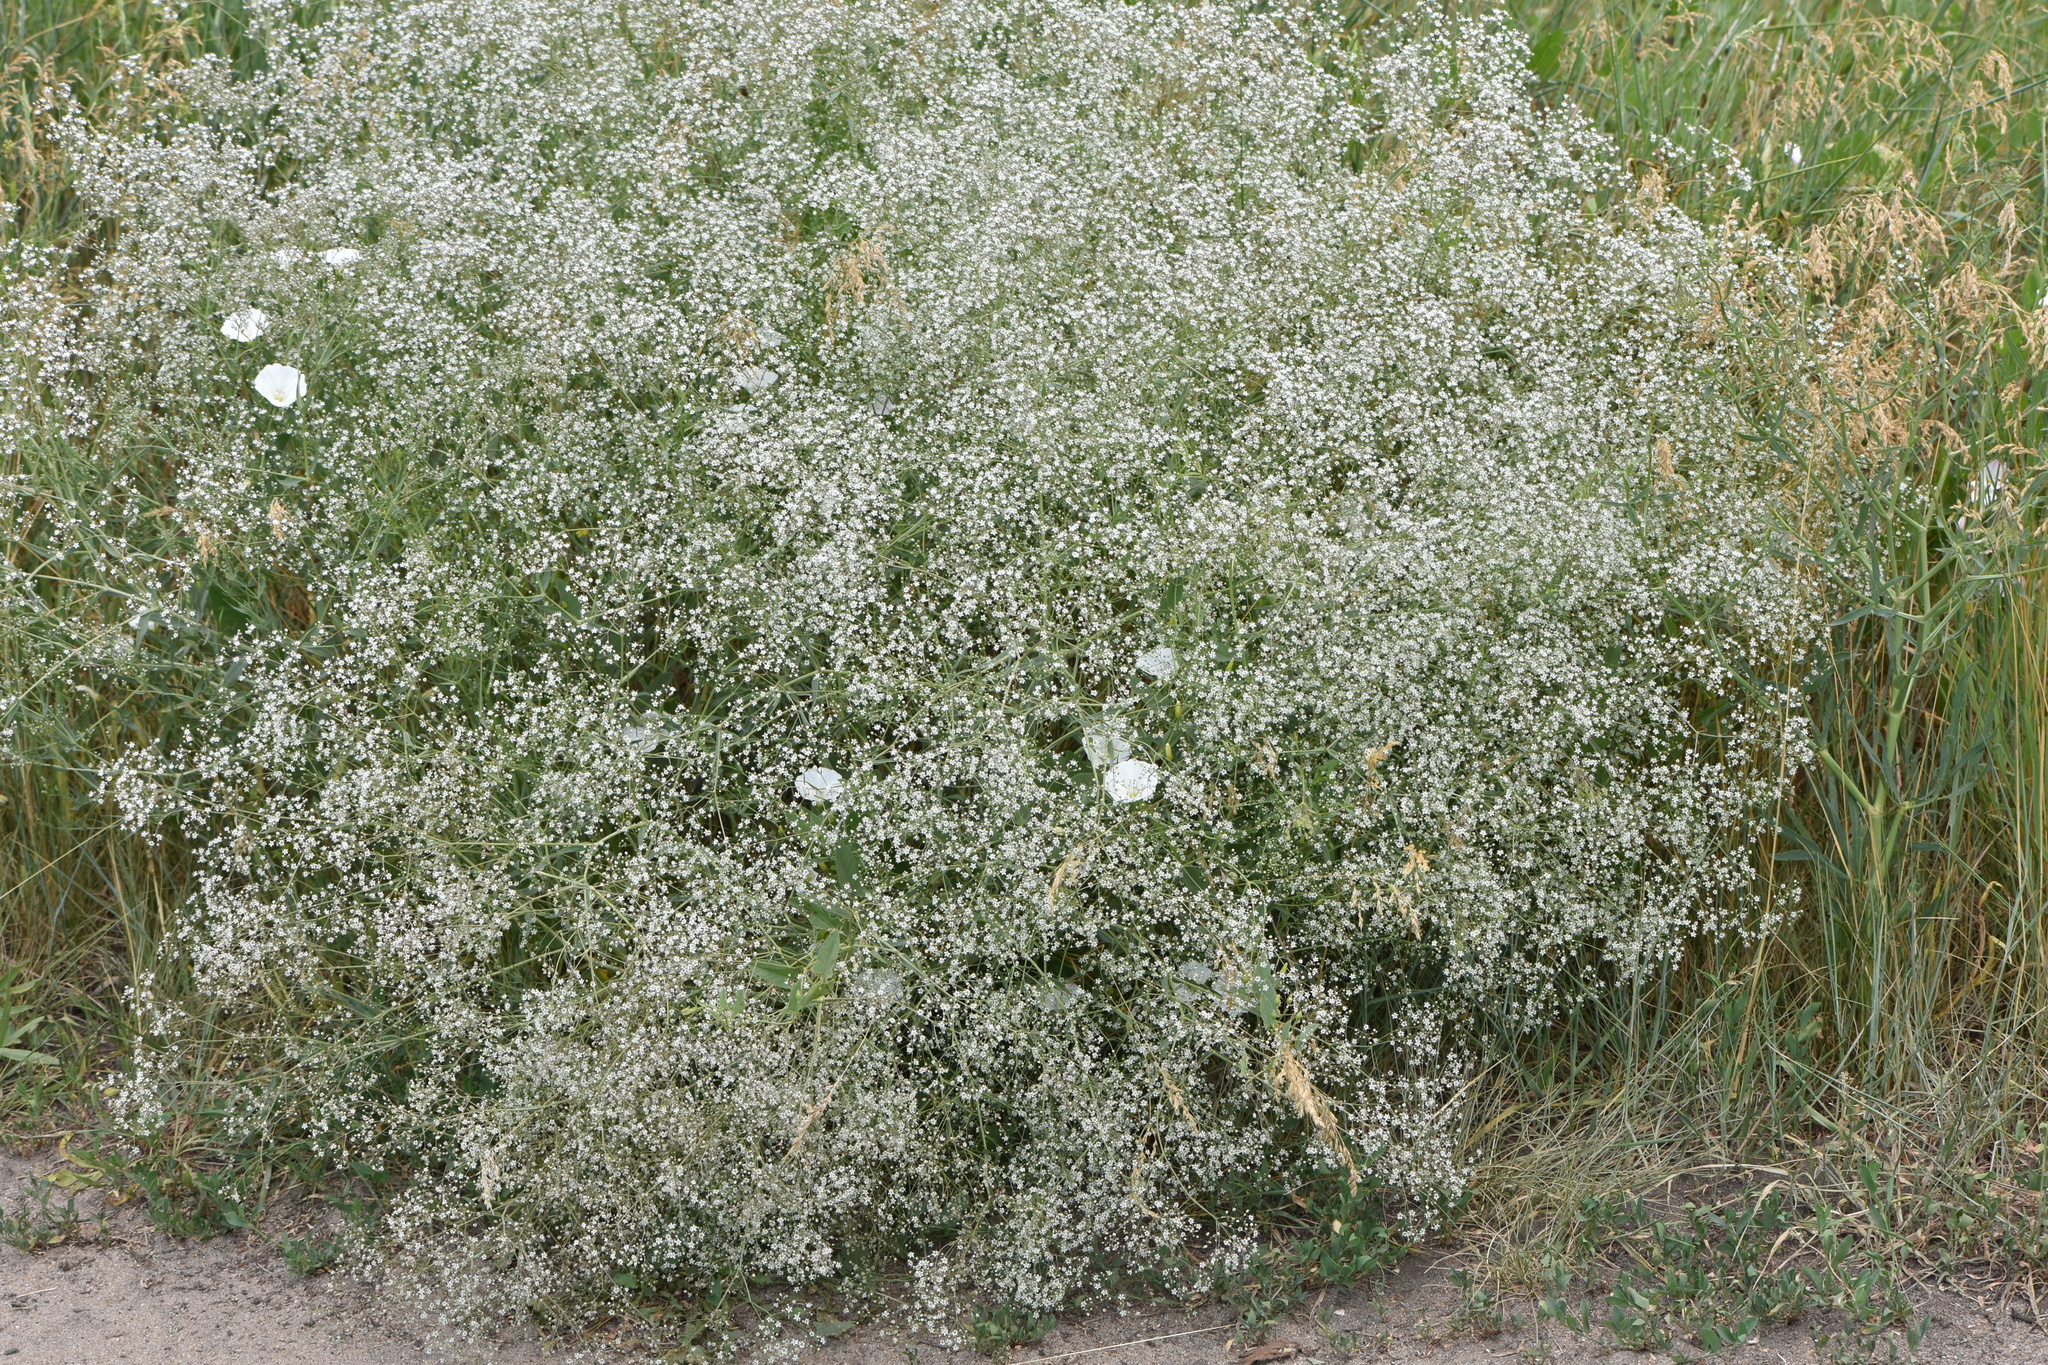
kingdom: Plantae
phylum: Tracheophyta
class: Magnoliopsida
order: Caryophyllales
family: Caryophyllaceae
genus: Gypsophila
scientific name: Gypsophila paniculata
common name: Baby's-breath
